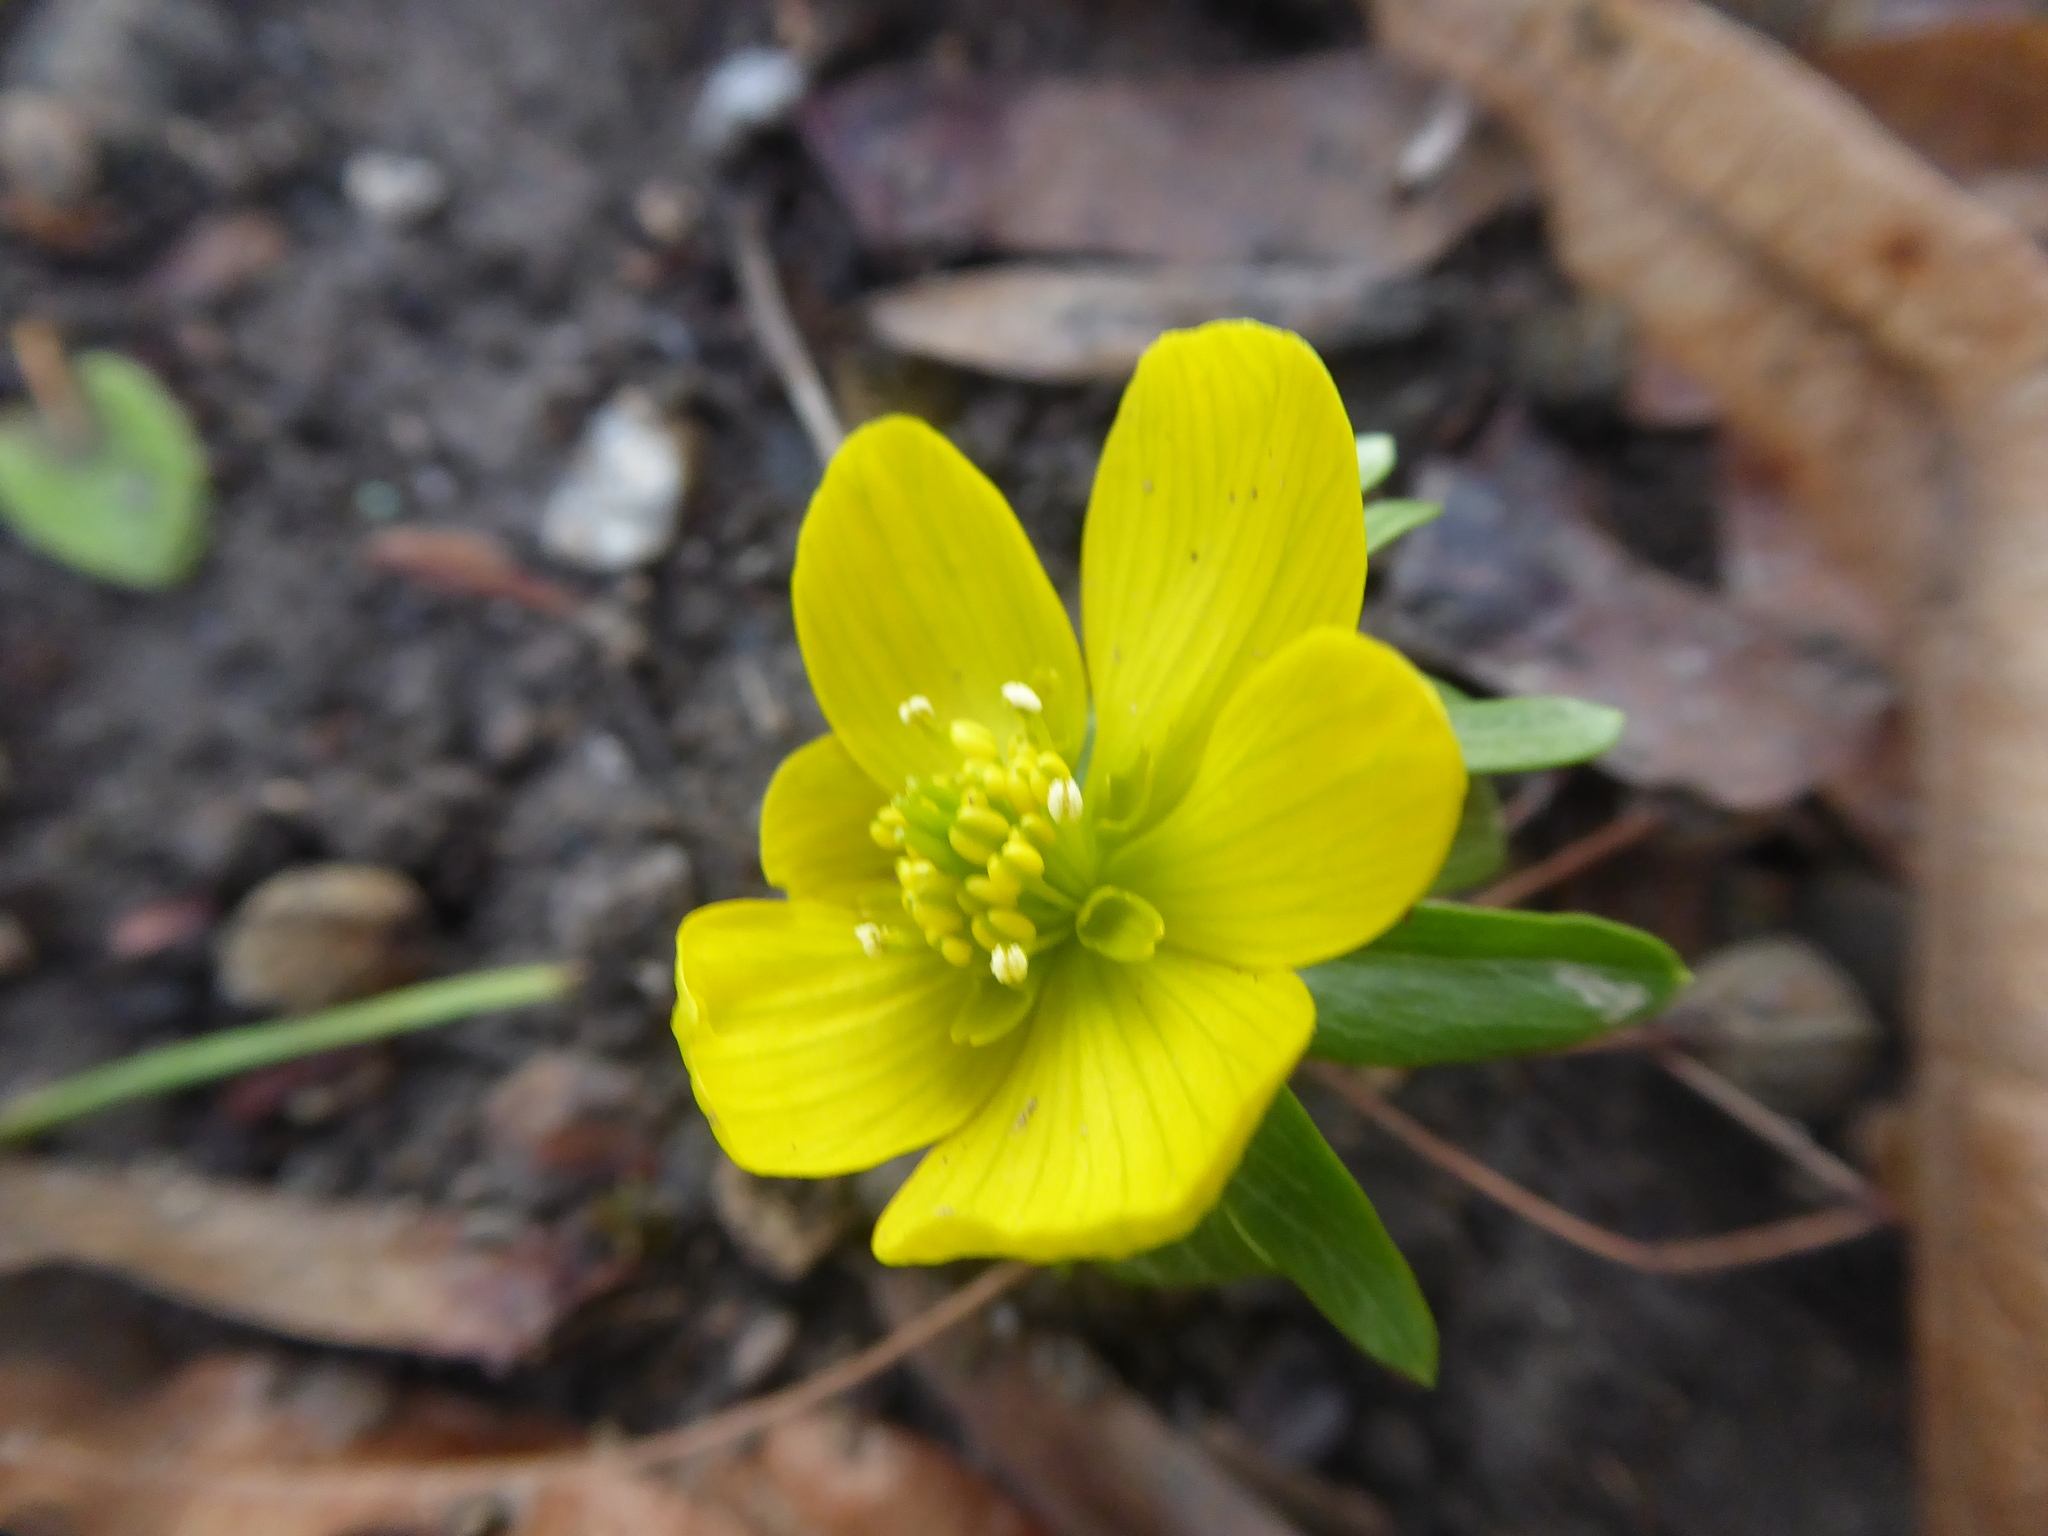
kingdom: Plantae
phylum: Tracheophyta
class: Magnoliopsida
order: Ranunculales
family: Ranunculaceae
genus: Eranthis
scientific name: Eranthis hyemalis
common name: Winter aconite
